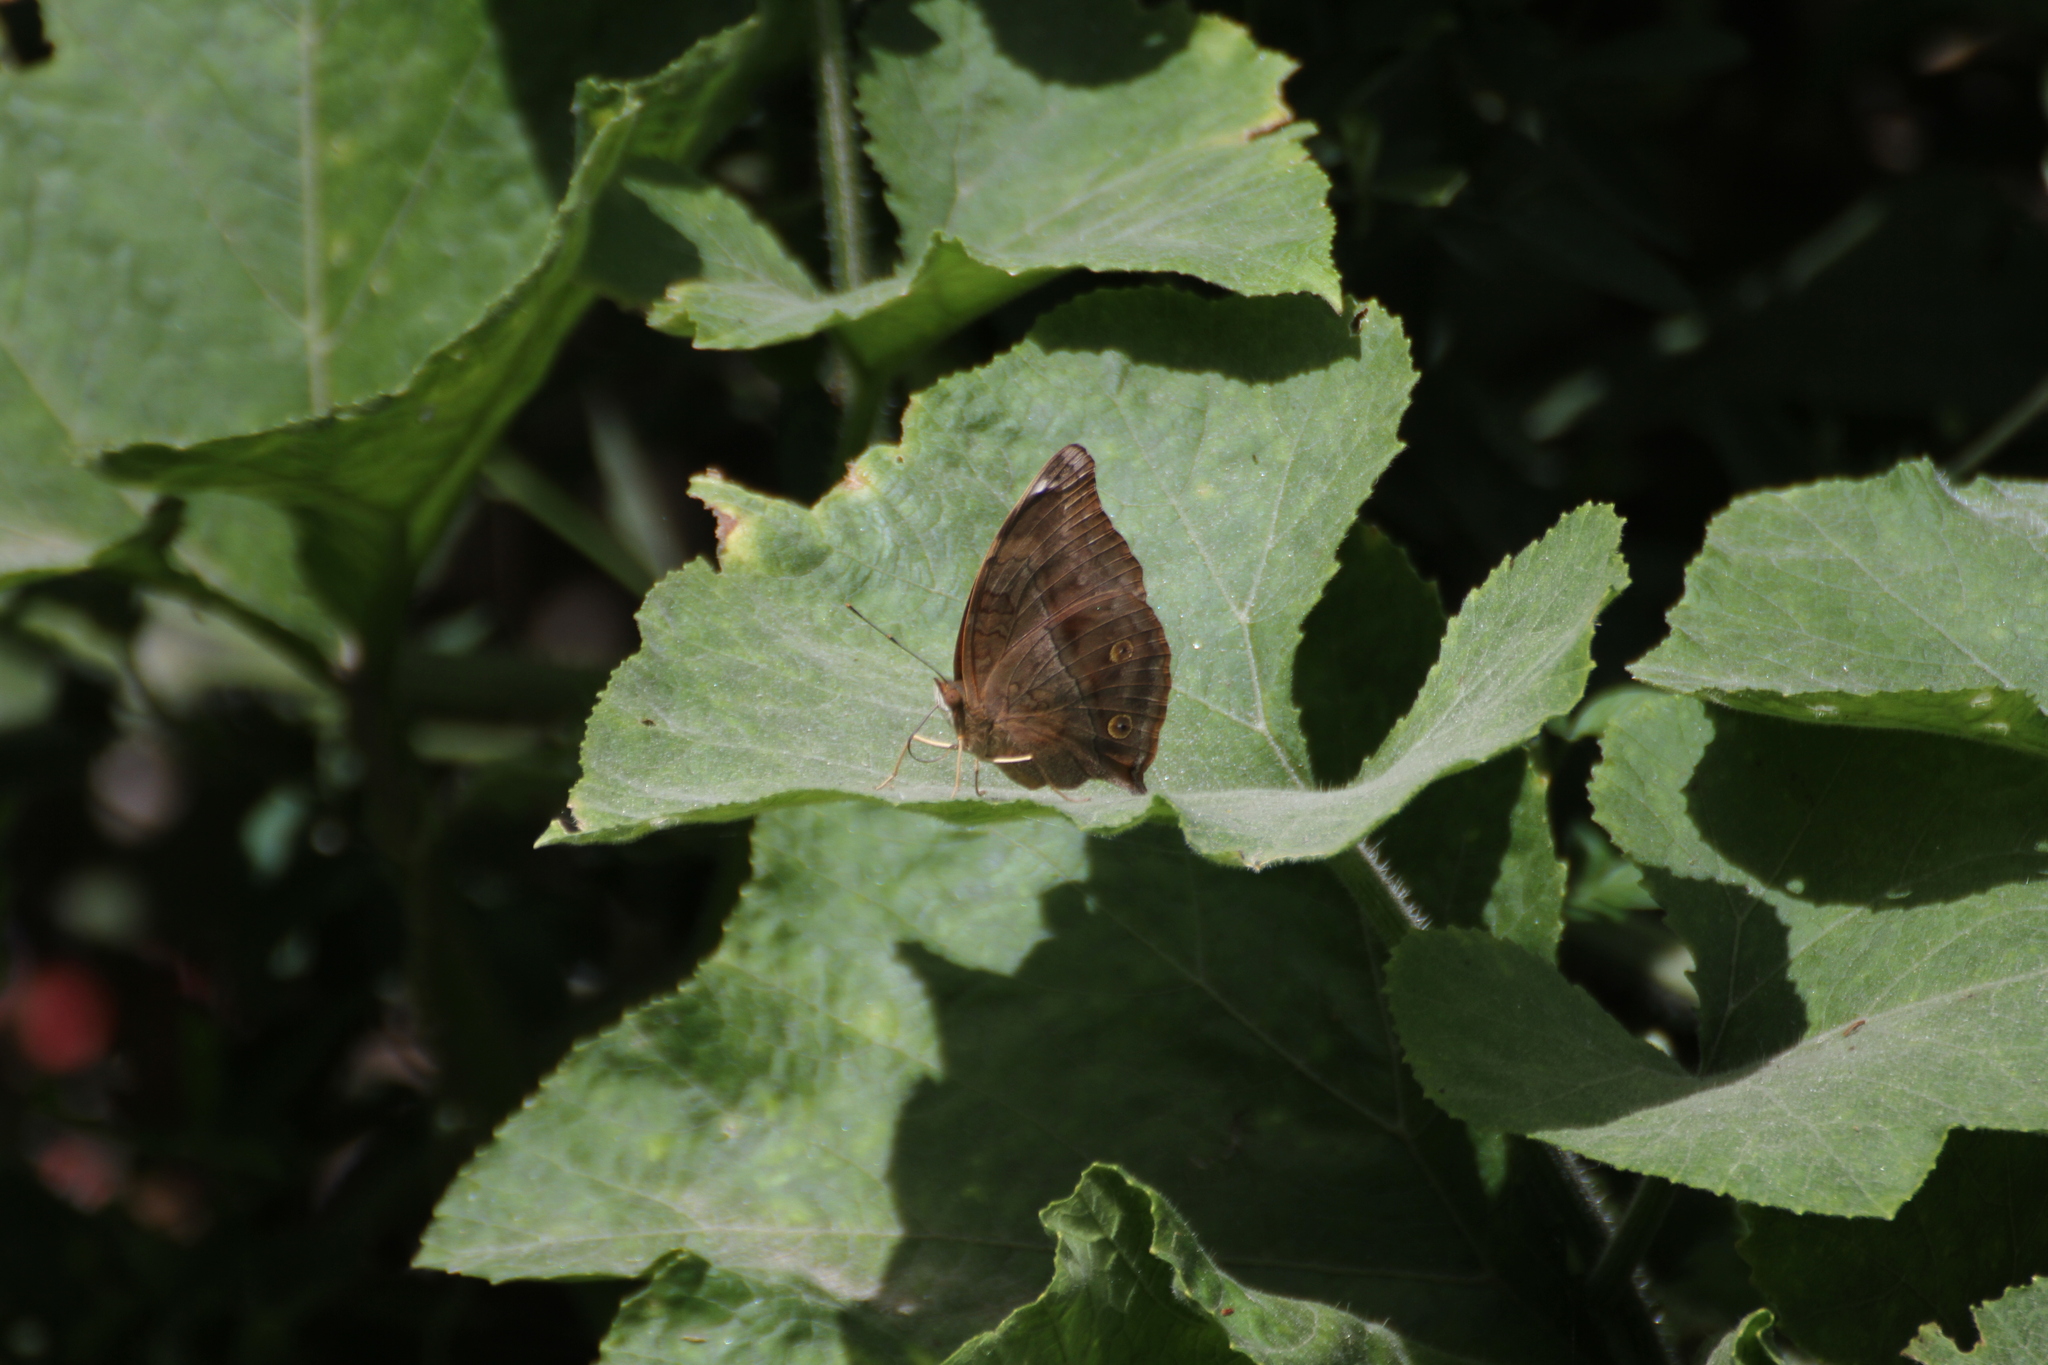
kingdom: Animalia
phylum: Arthropoda
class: Insecta
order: Lepidoptera
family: Nymphalidae
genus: Doleschallia
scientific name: Doleschallia bisaltide
